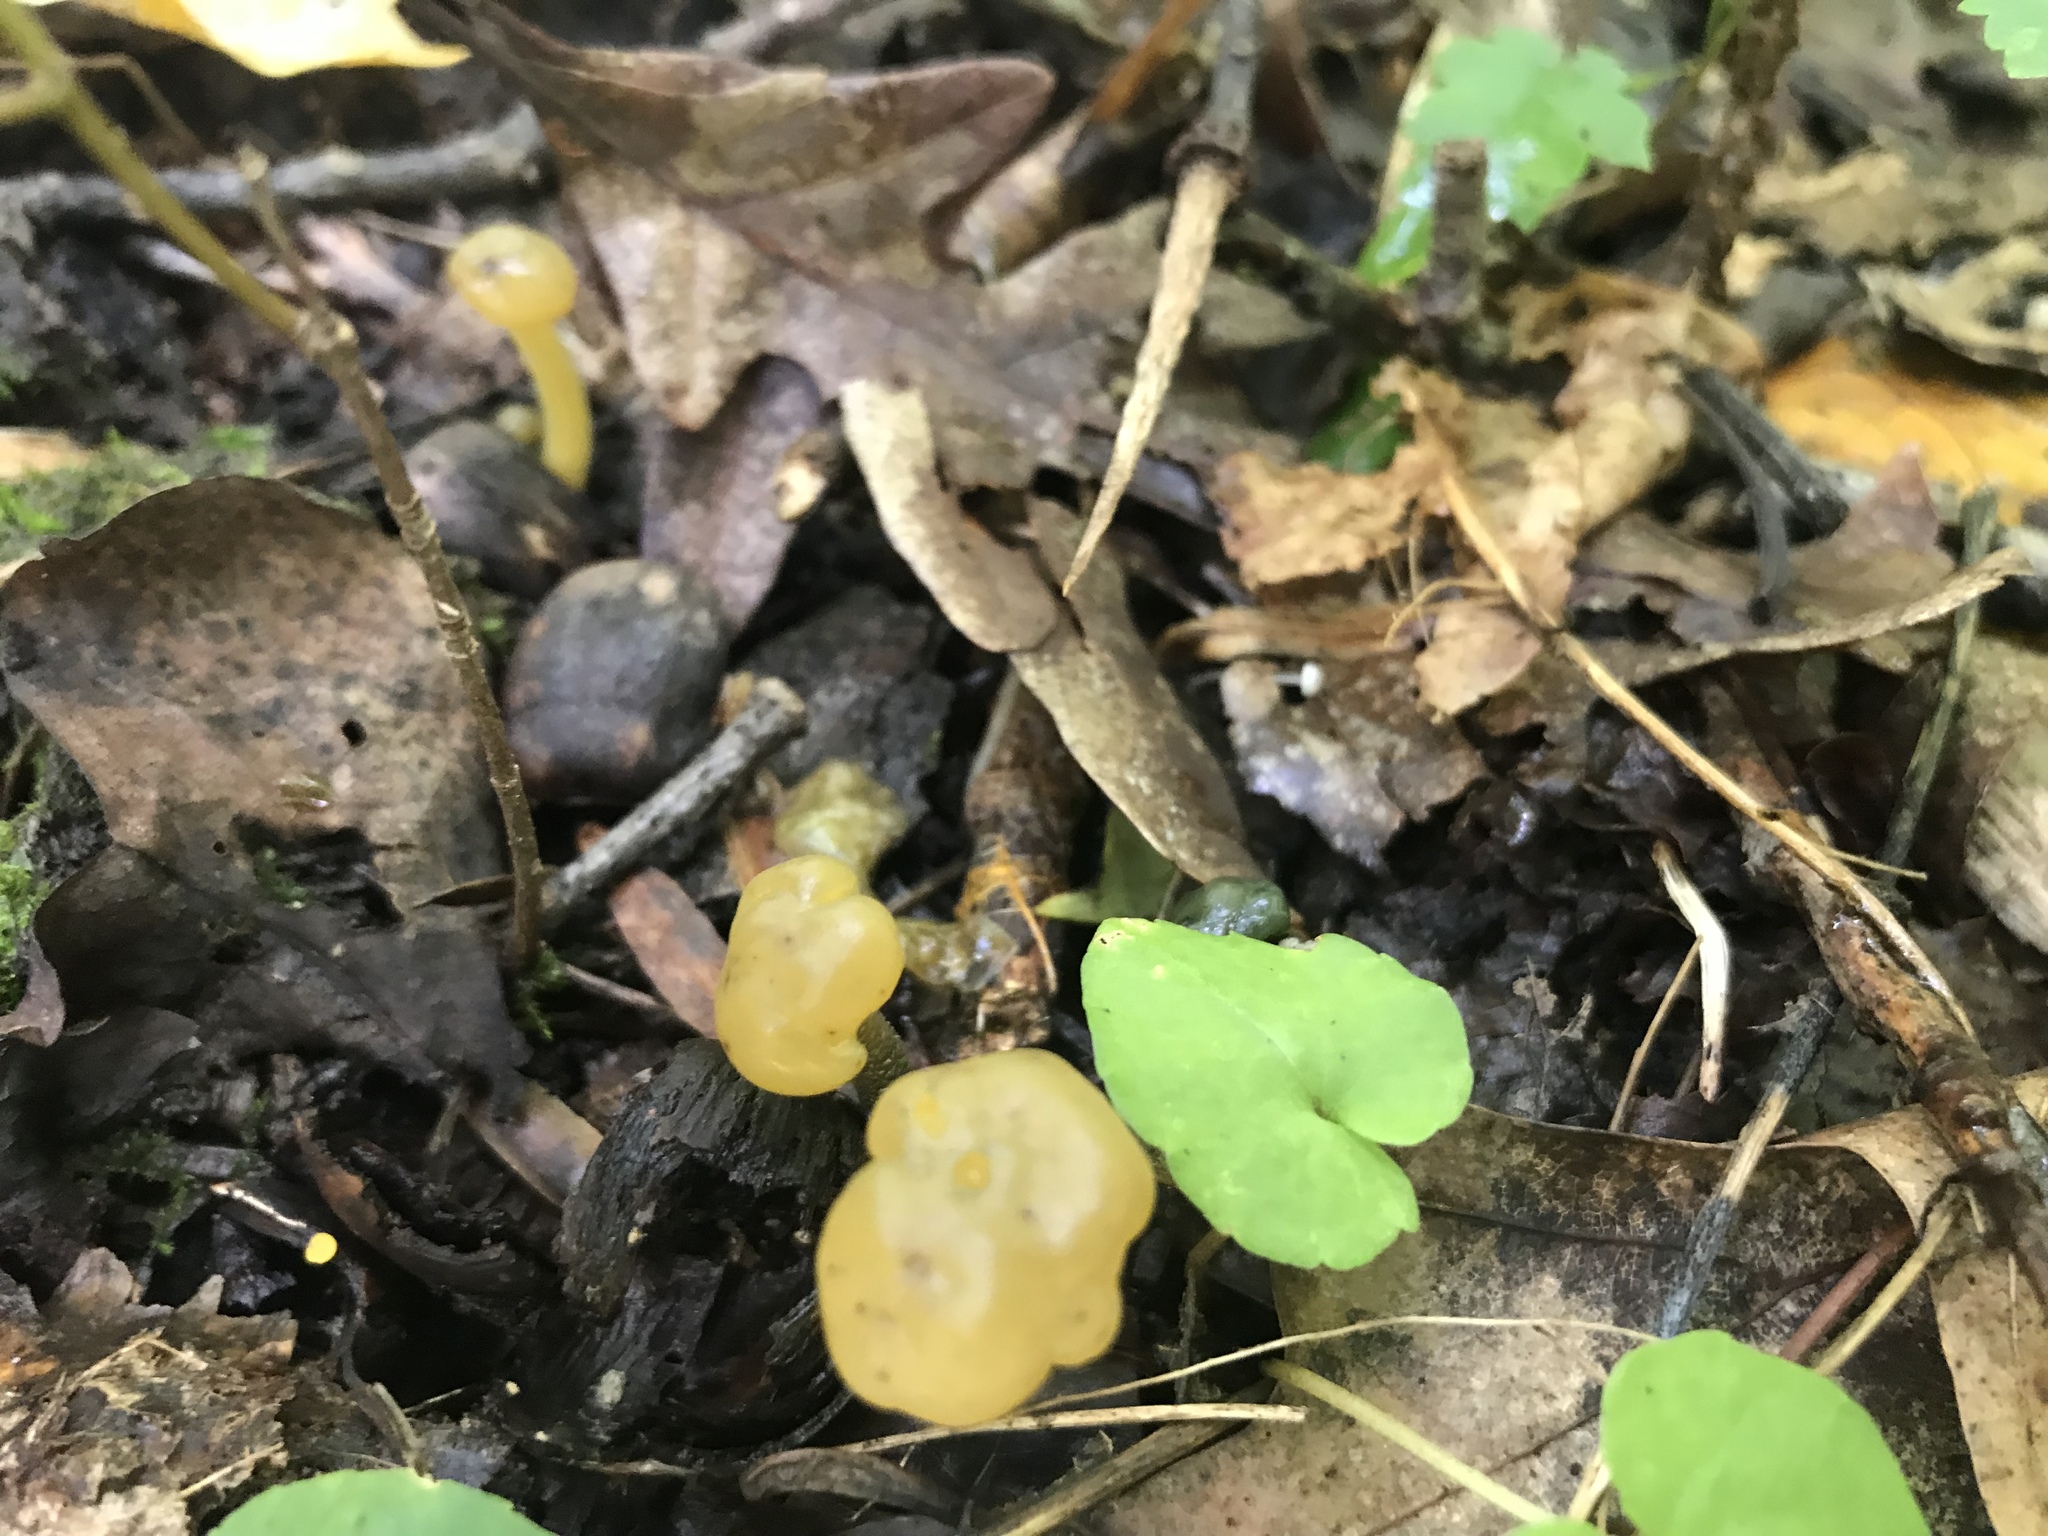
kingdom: Fungi
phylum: Ascomycota
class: Leotiomycetes
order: Leotiales
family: Leotiaceae
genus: Leotia
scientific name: Leotia lubrica
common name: Jellybaby
